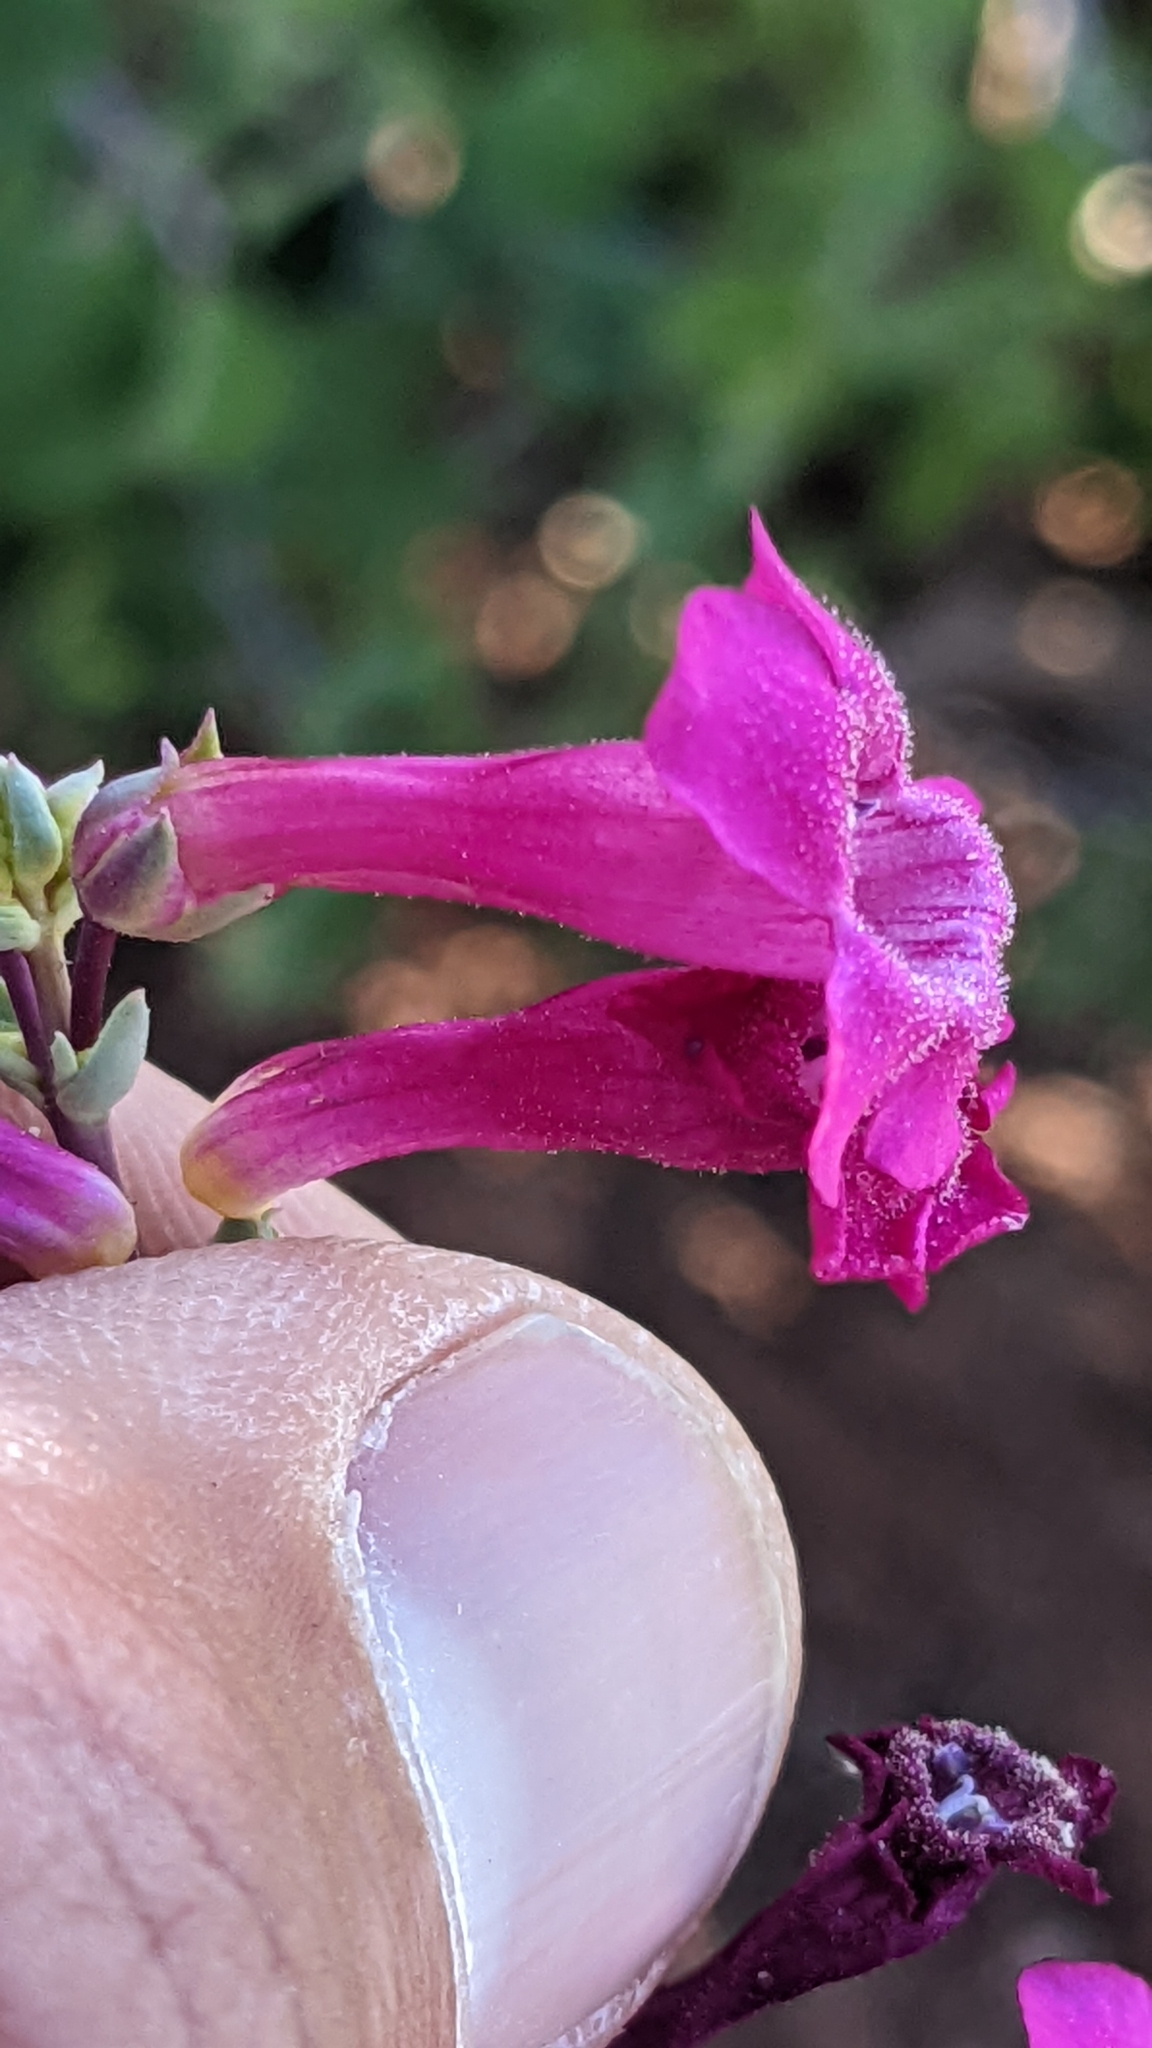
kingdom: Plantae
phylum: Tracheophyta
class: Magnoliopsida
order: Lamiales
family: Plantaginaceae
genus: Penstemon
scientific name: Penstemon confusus
